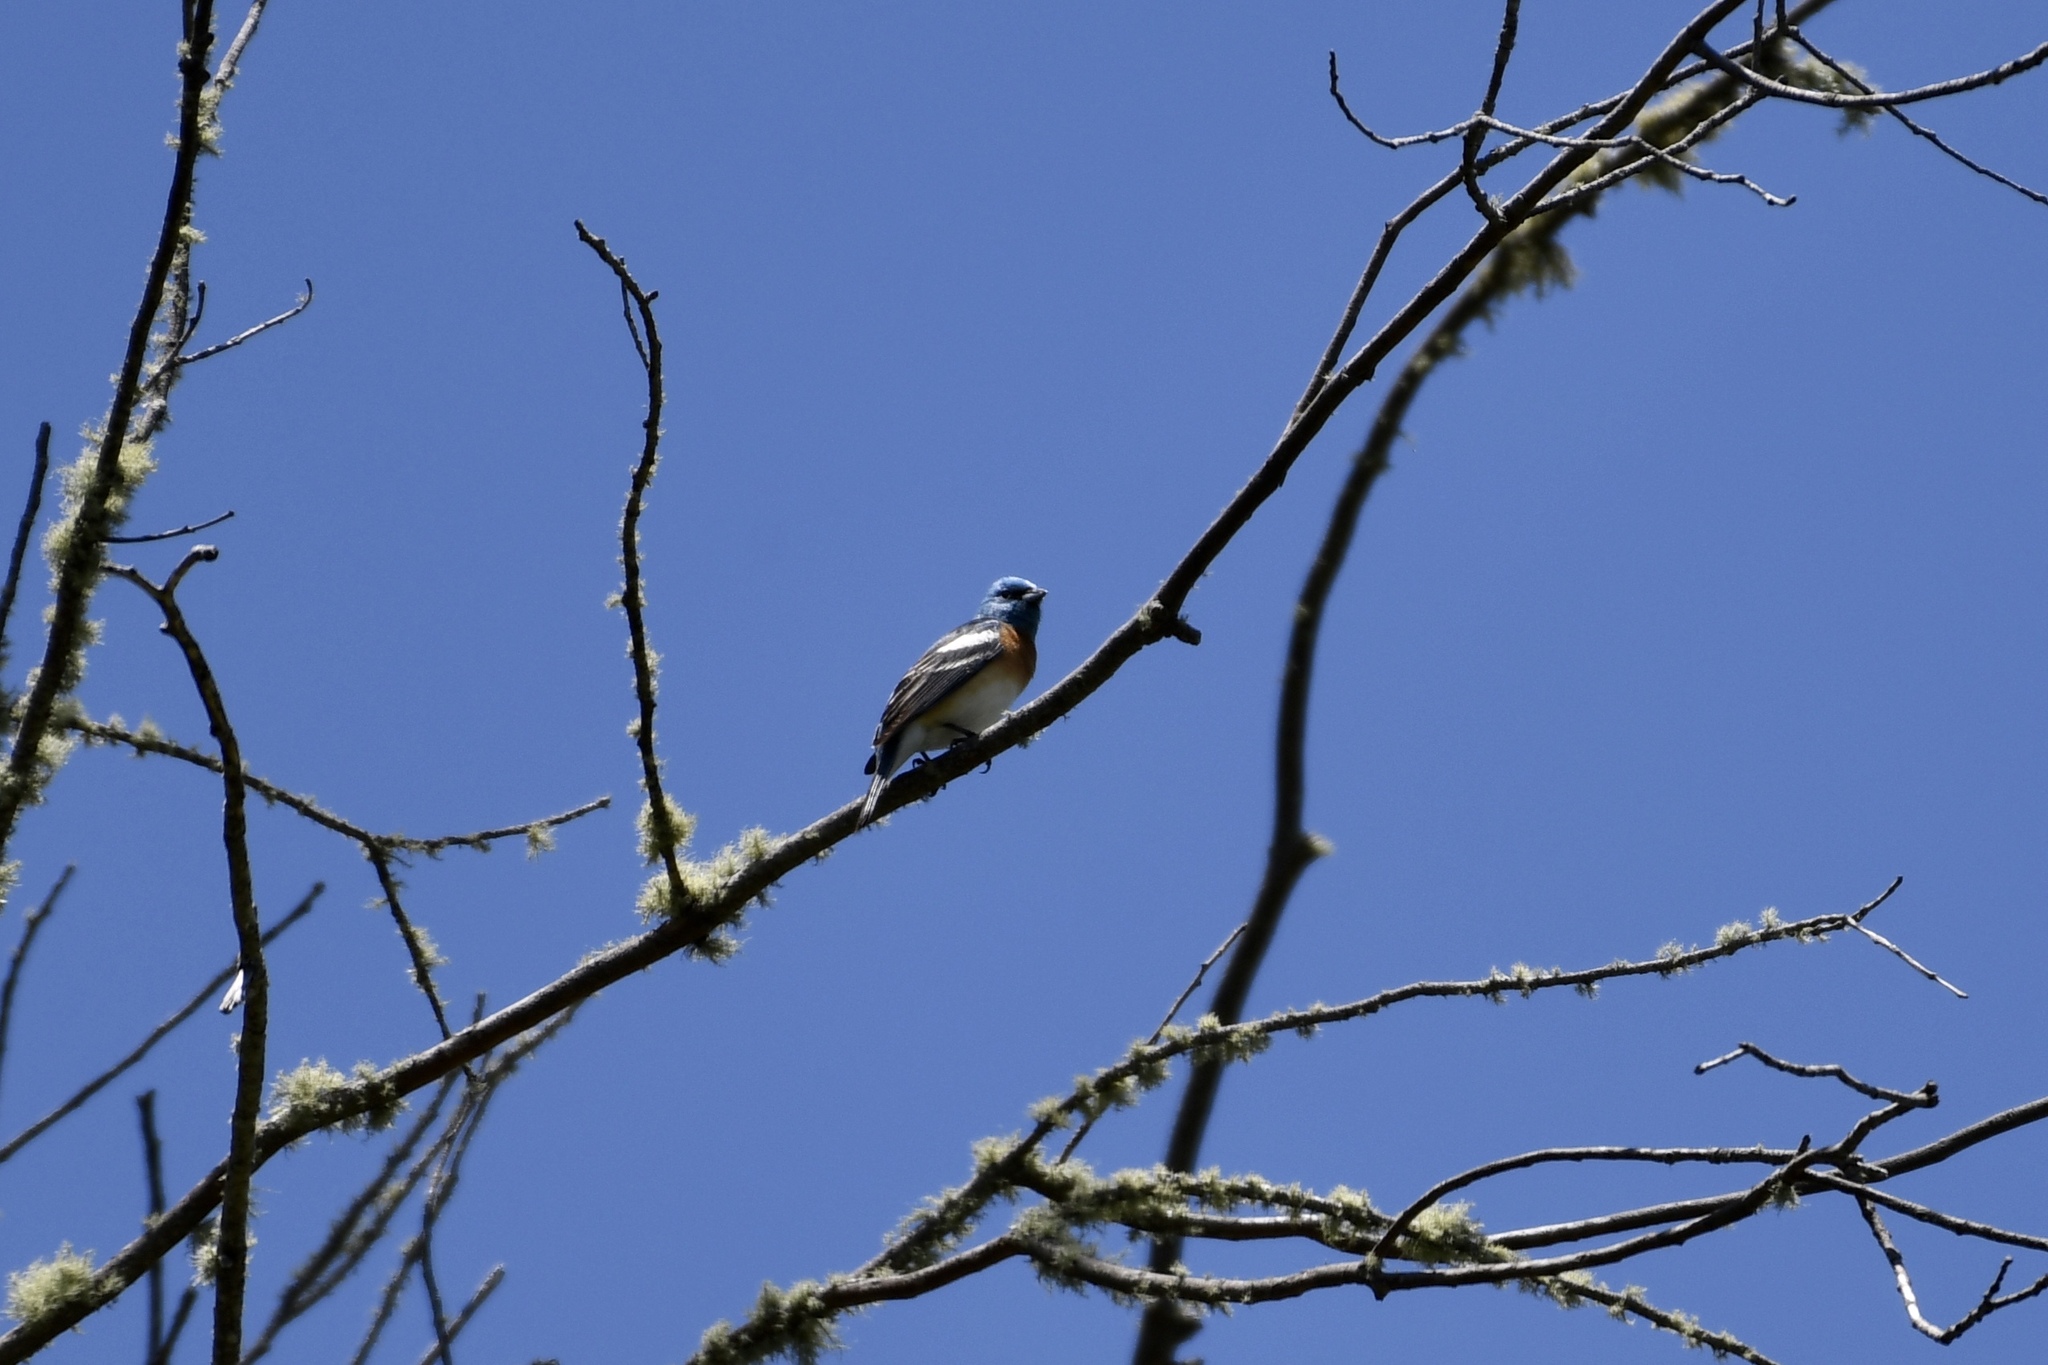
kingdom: Animalia
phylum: Chordata
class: Aves
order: Passeriformes
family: Cardinalidae
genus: Passerina
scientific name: Passerina amoena
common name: Lazuli bunting
